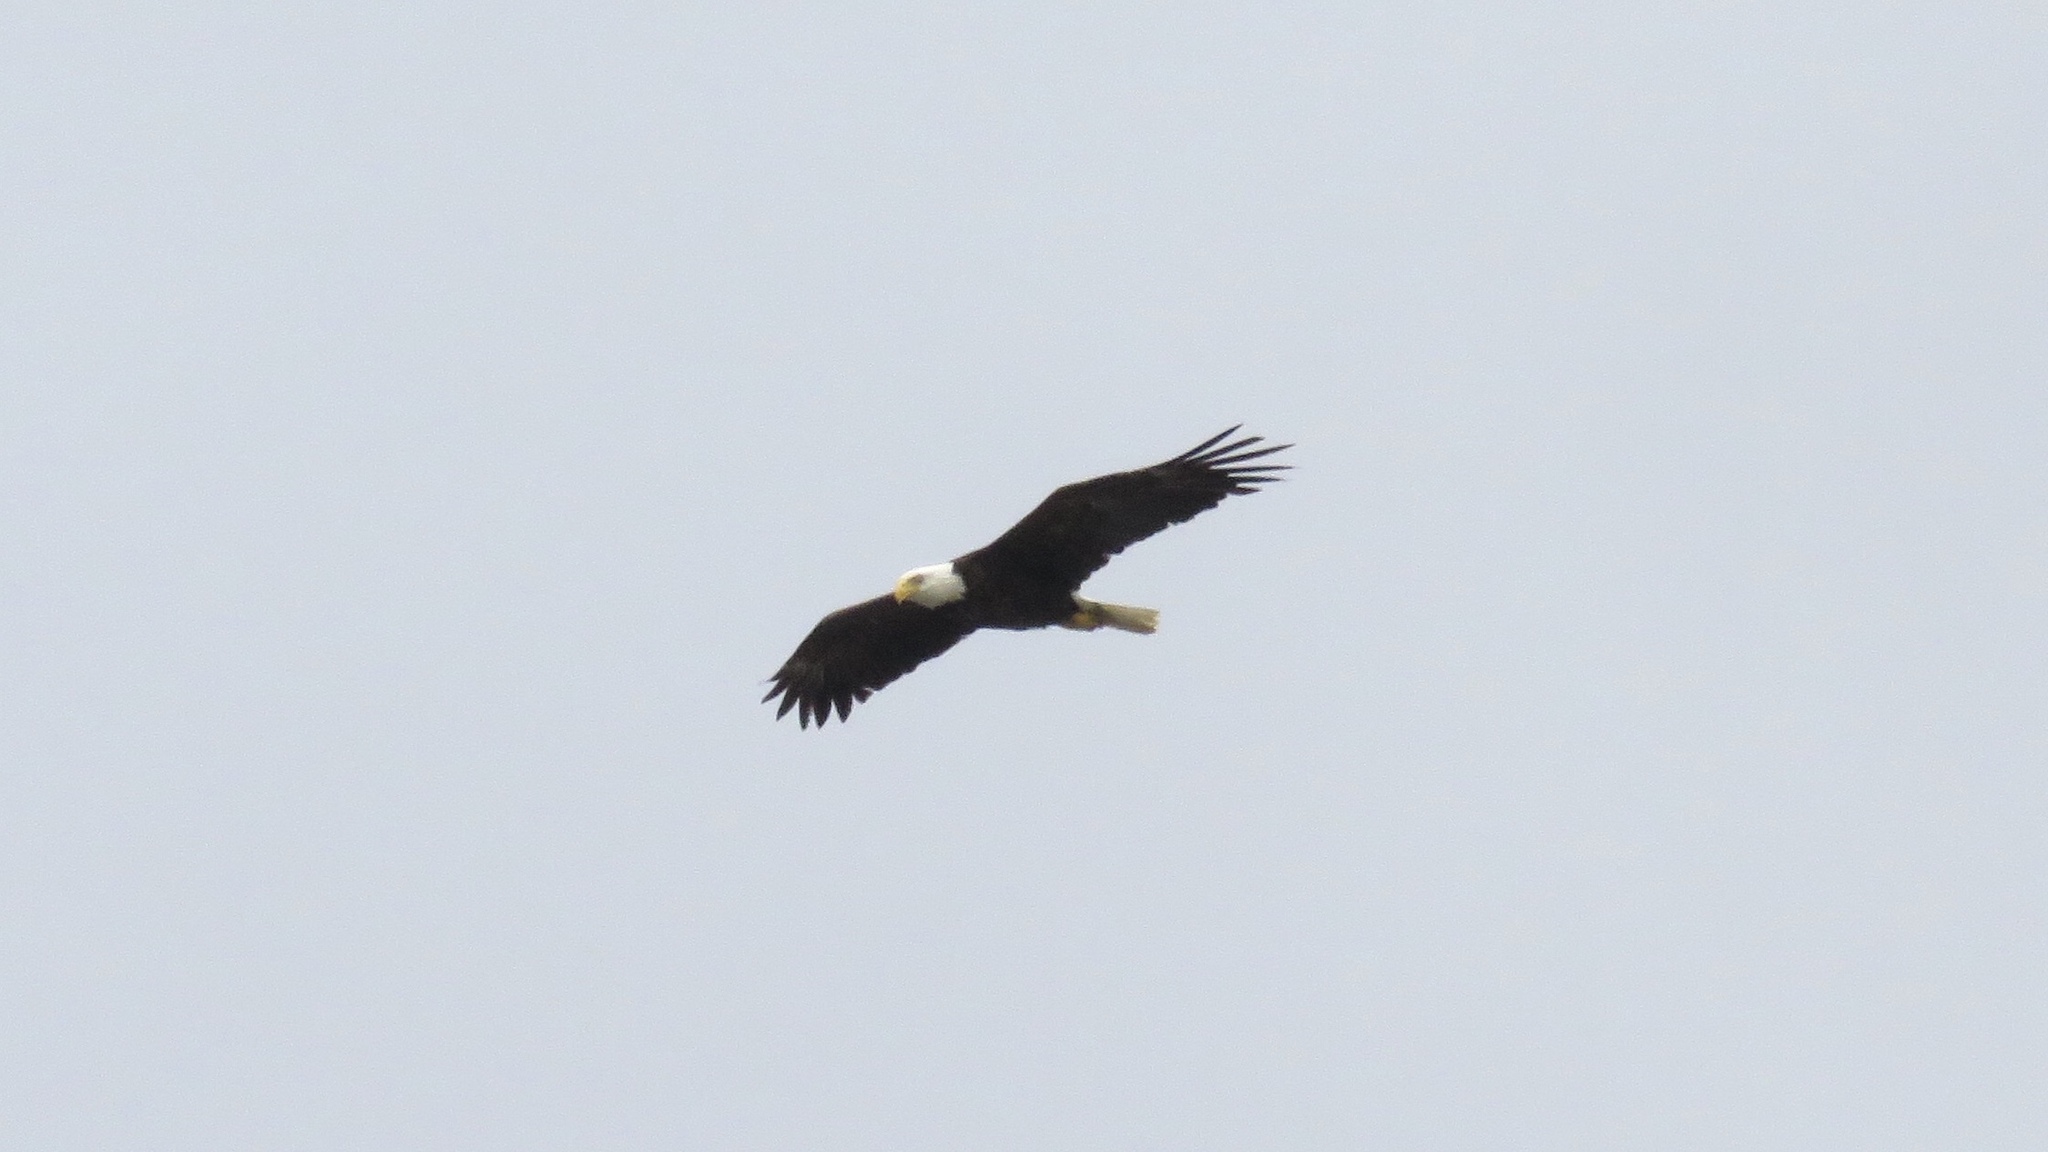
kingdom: Animalia
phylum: Chordata
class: Aves
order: Accipitriformes
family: Accipitridae
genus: Haliaeetus
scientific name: Haliaeetus leucocephalus
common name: Bald eagle
